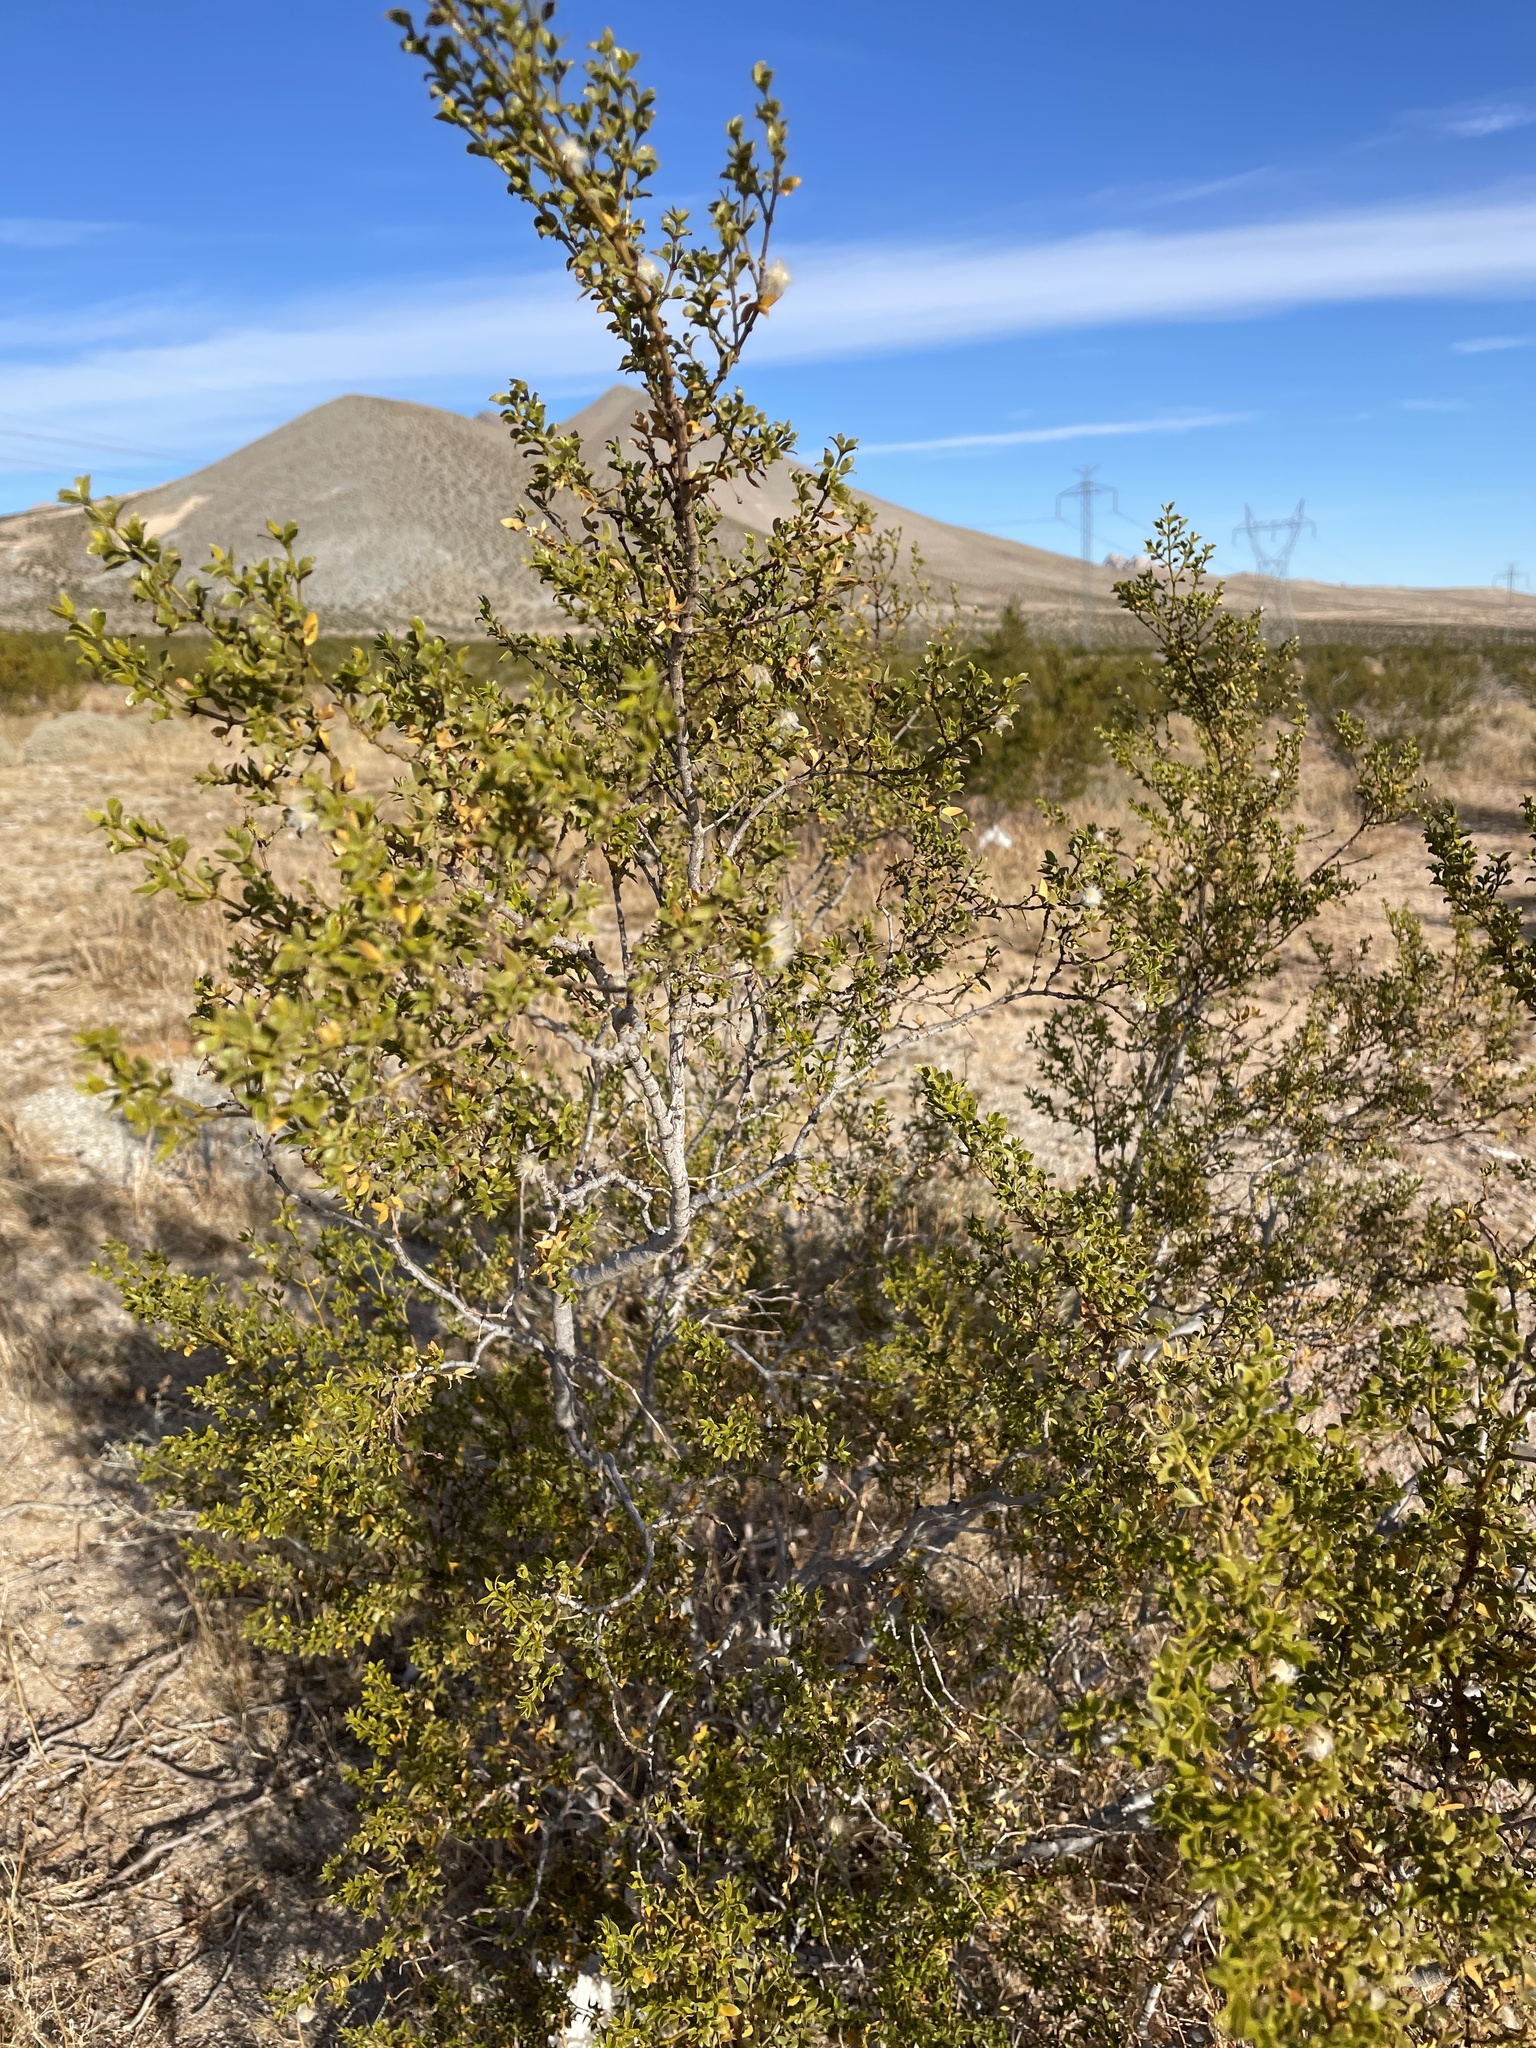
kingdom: Plantae
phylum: Tracheophyta
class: Magnoliopsida
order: Zygophyllales
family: Zygophyllaceae
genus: Larrea
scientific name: Larrea tridentata
